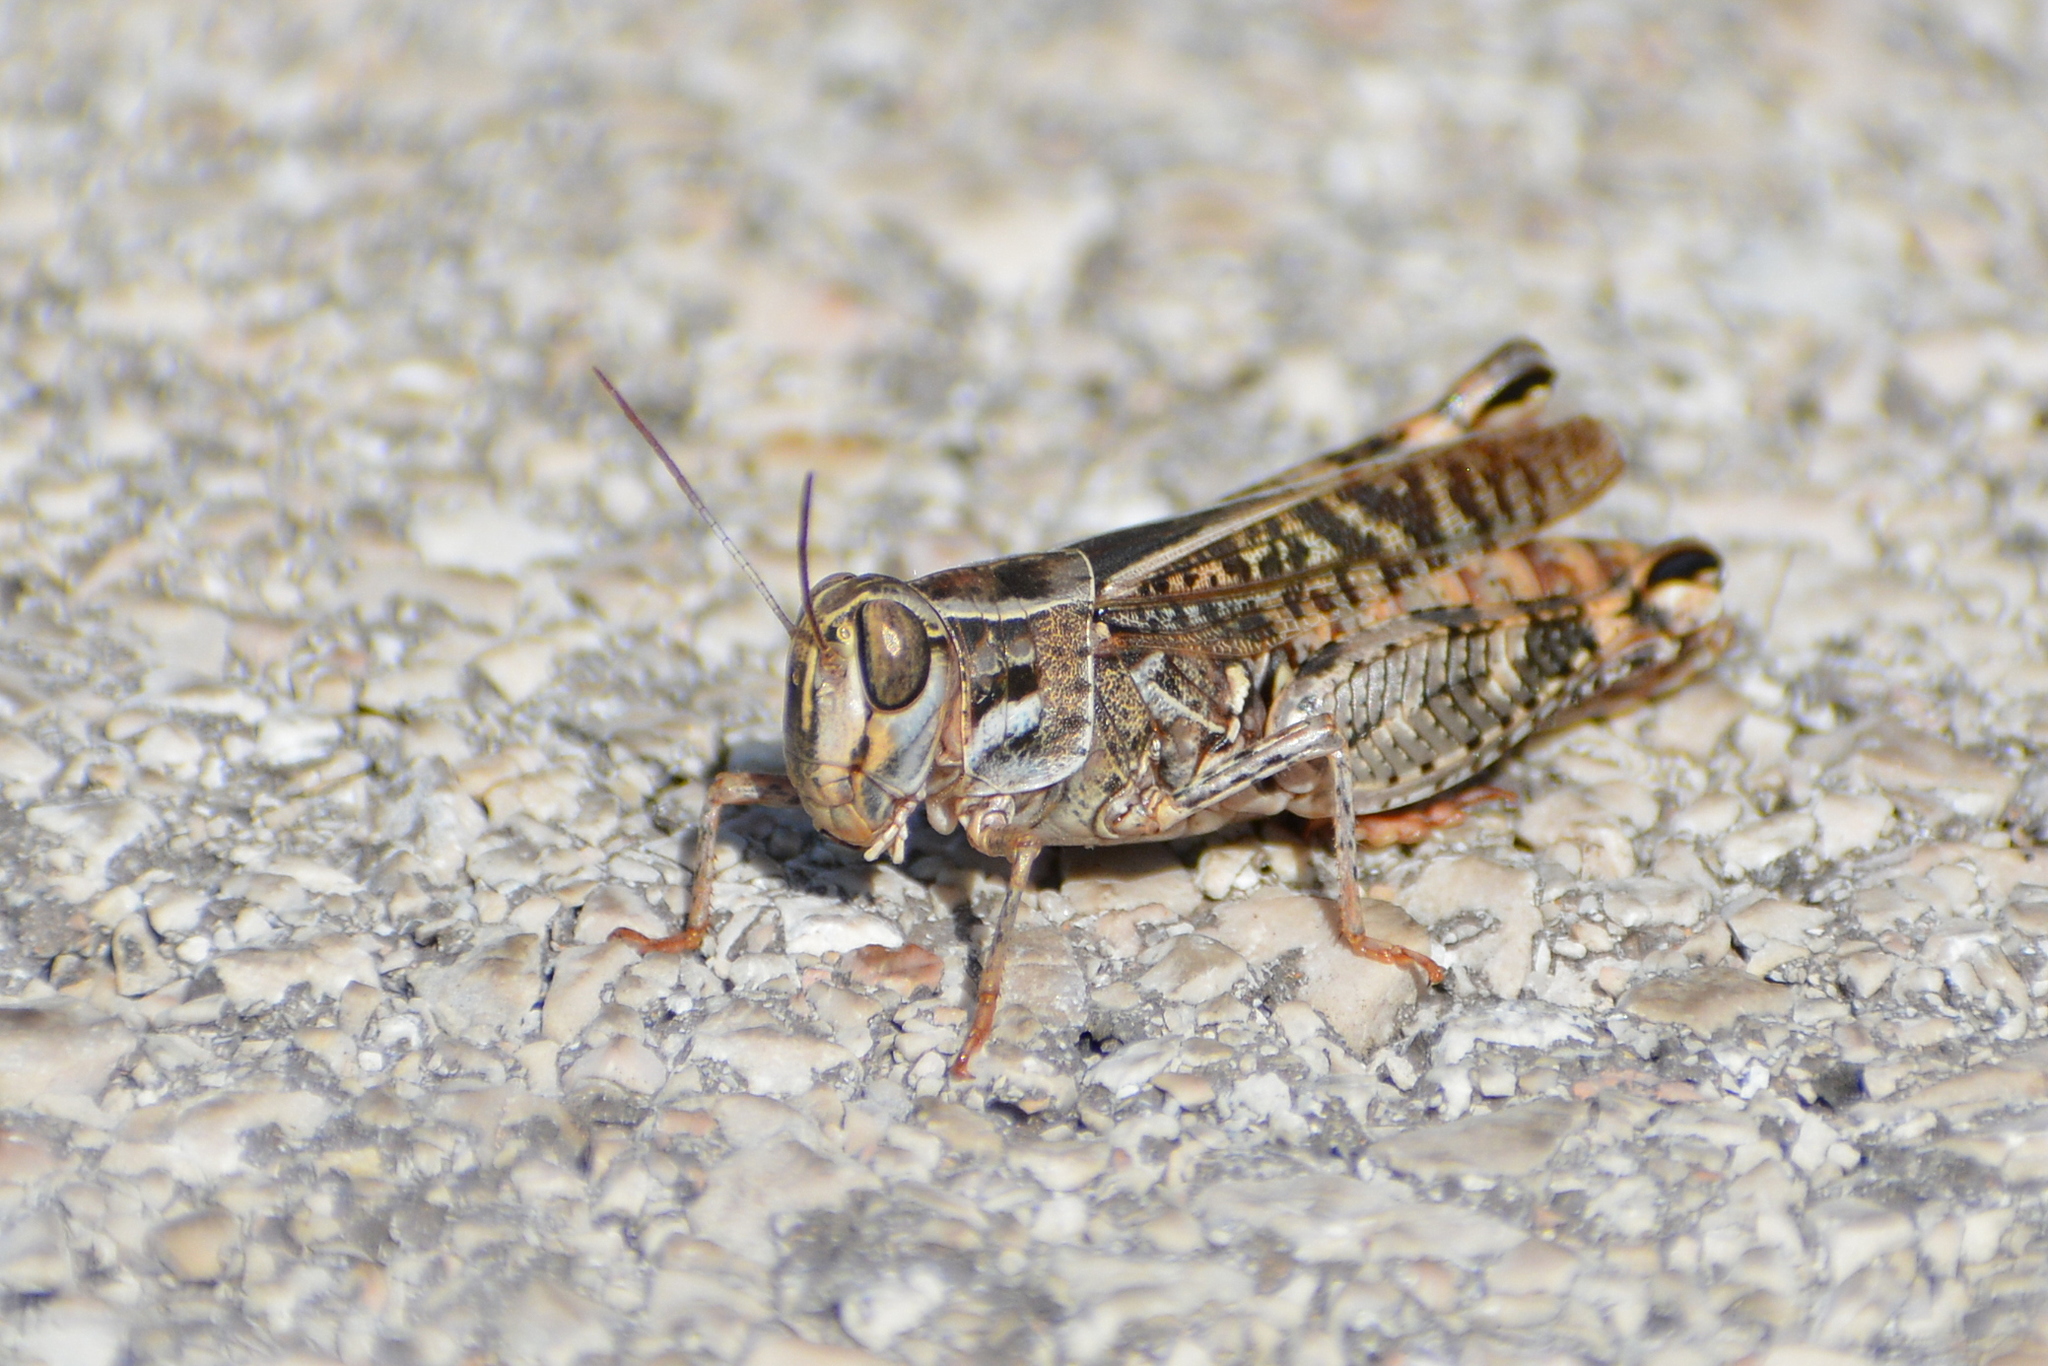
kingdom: Animalia
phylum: Arthropoda
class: Insecta
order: Orthoptera
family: Acrididae
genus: Calliptamus
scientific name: Calliptamus italicus
